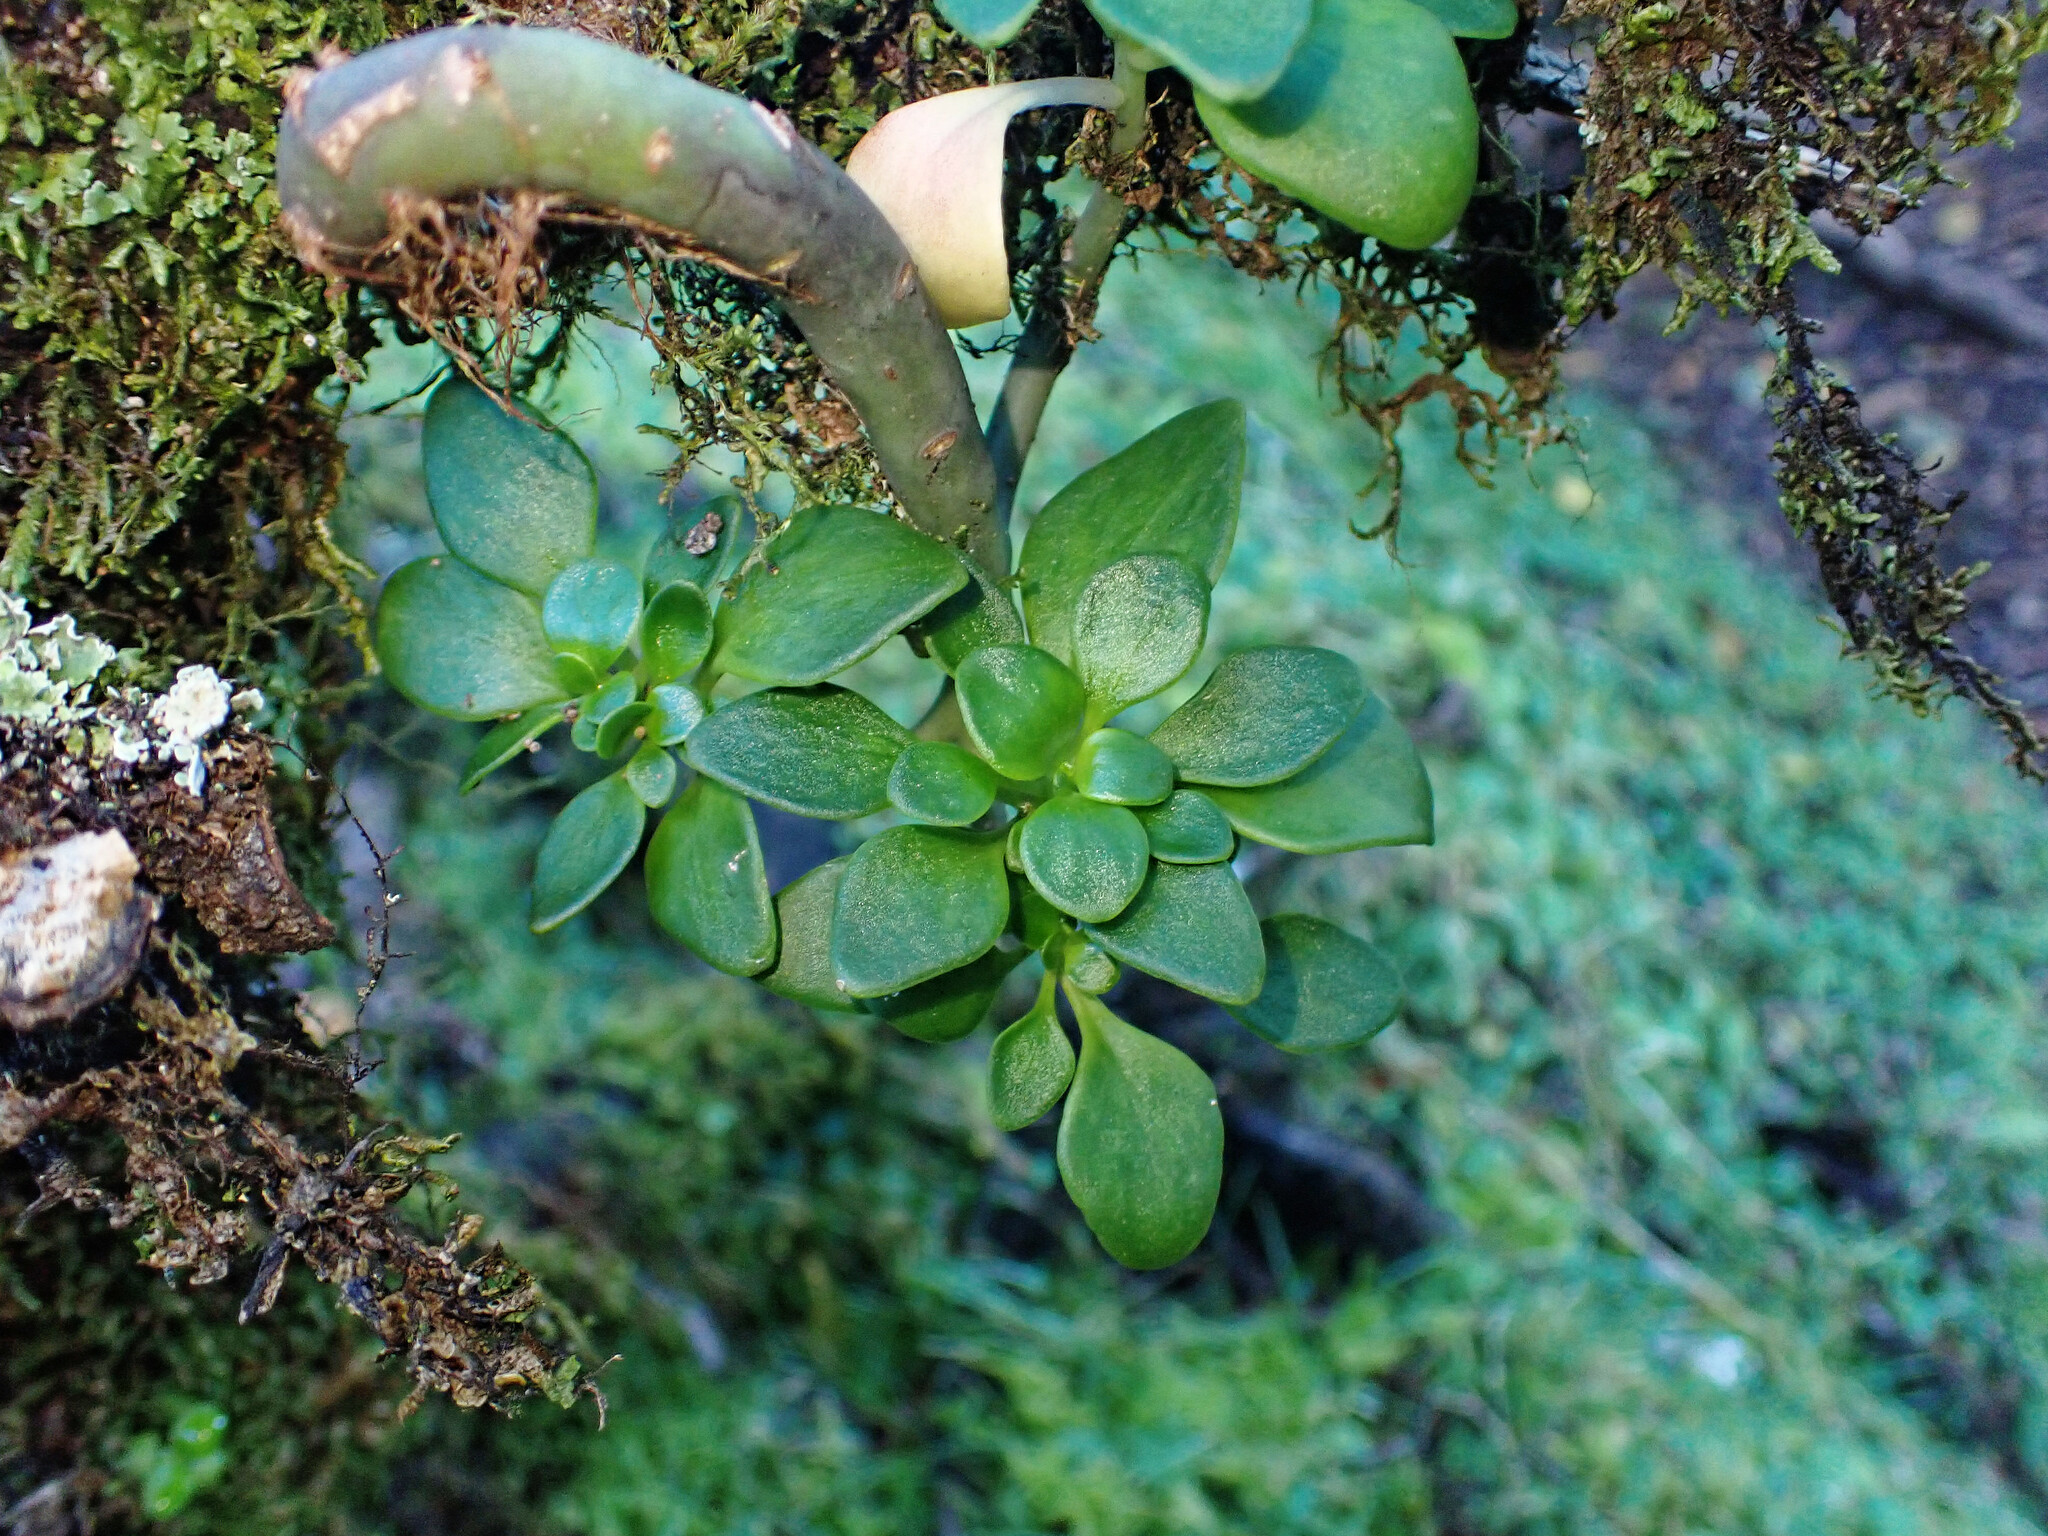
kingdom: Plantae
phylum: Tracheophyta
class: Magnoliopsida
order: Saxifragales
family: Crassulaceae
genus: Aichryson
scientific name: Aichryson divaricatum
